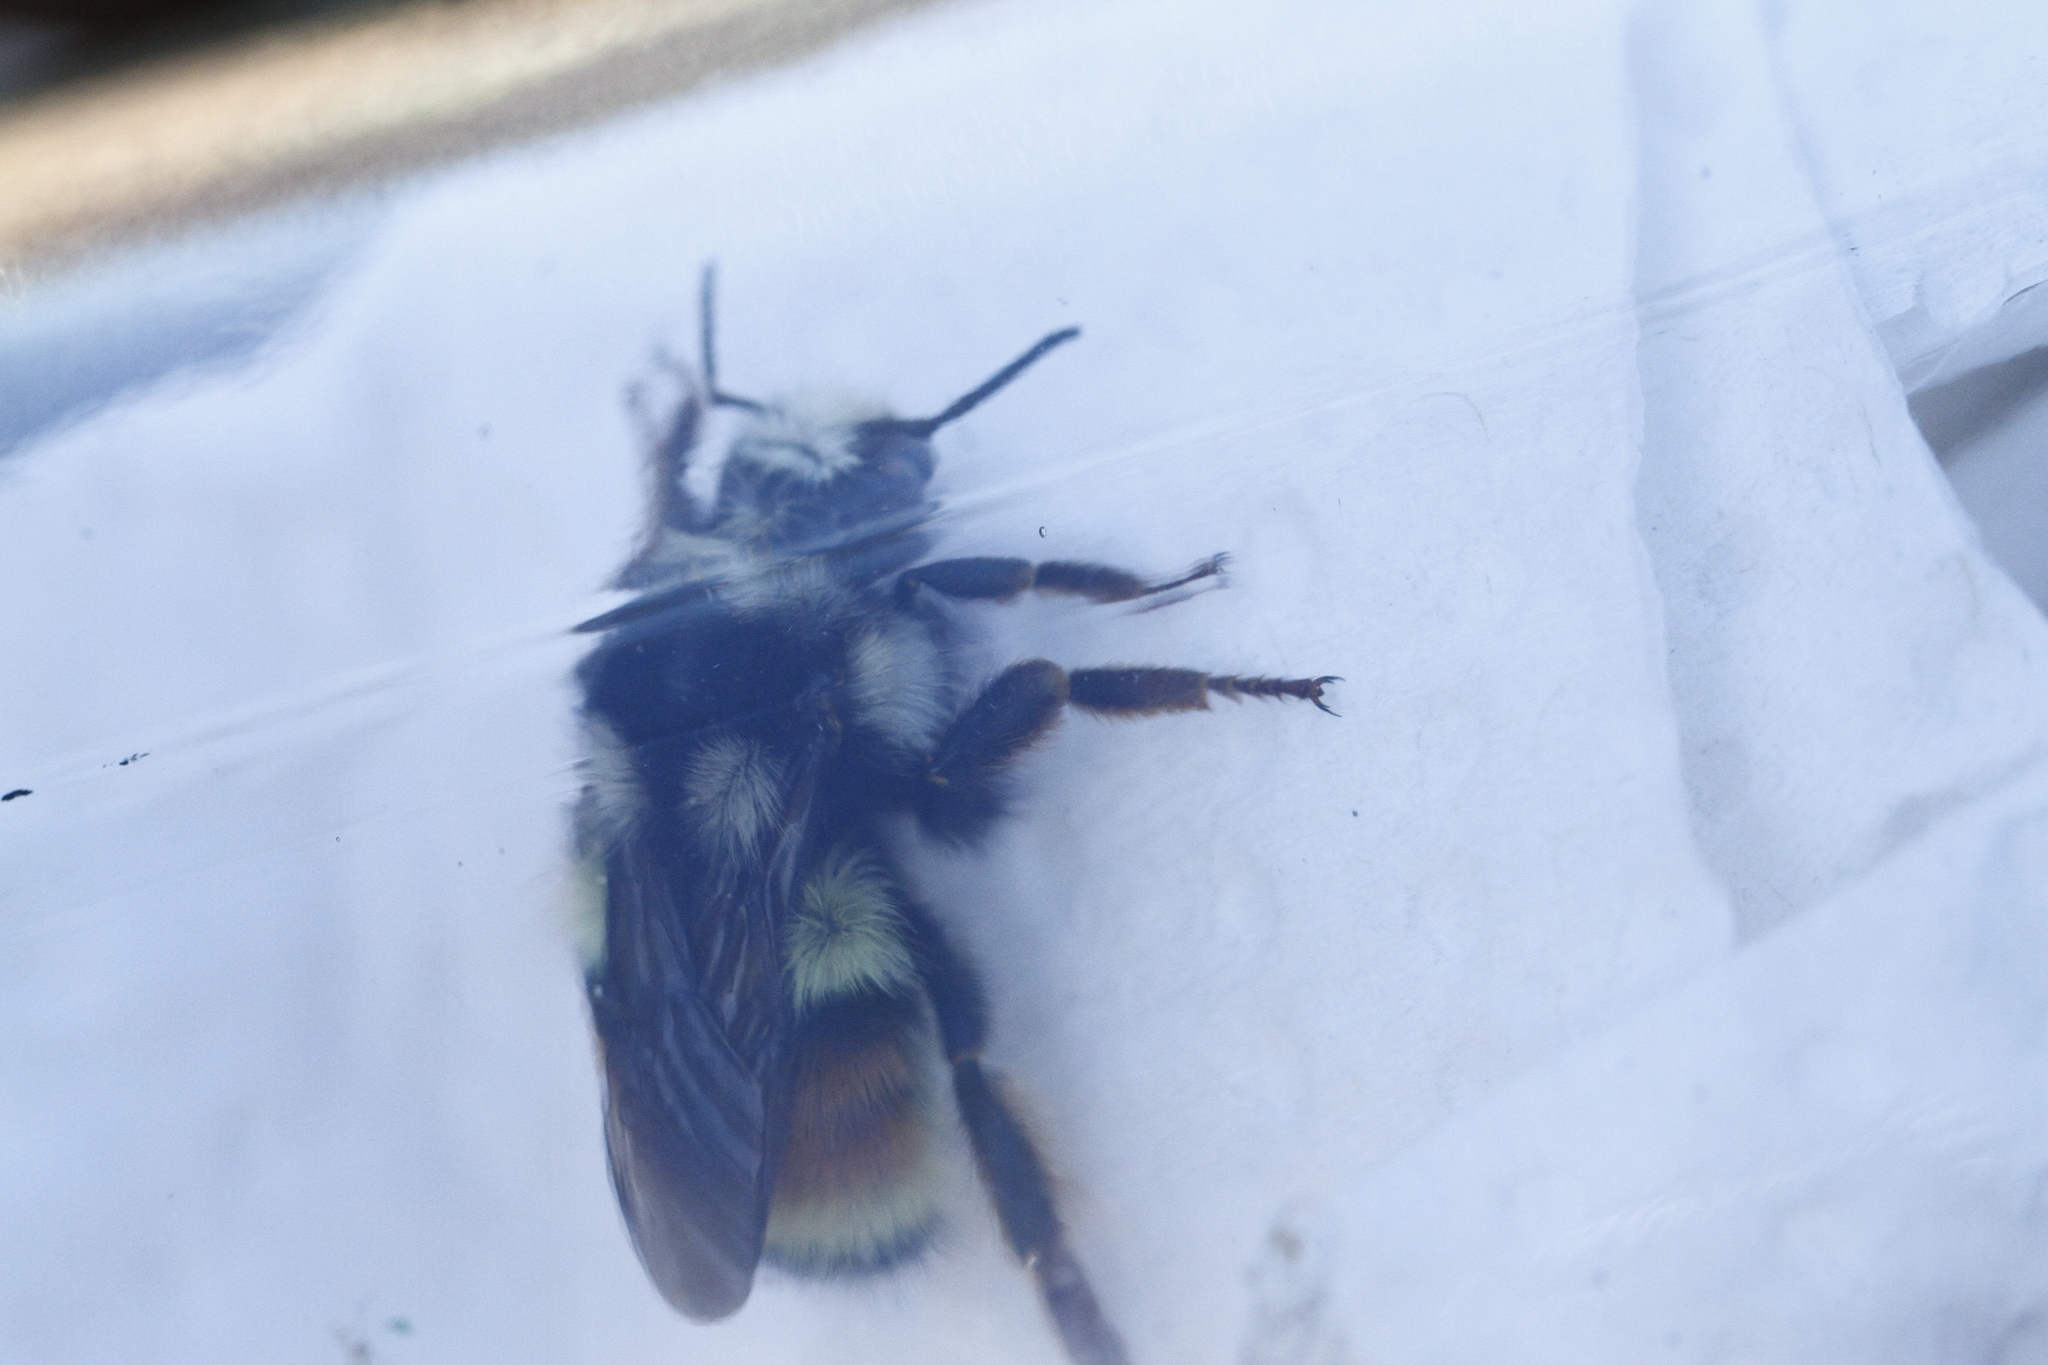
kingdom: Animalia
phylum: Arthropoda
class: Insecta
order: Hymenoptera
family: Apidae
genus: Bombus
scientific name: Bombus vancouverensis
